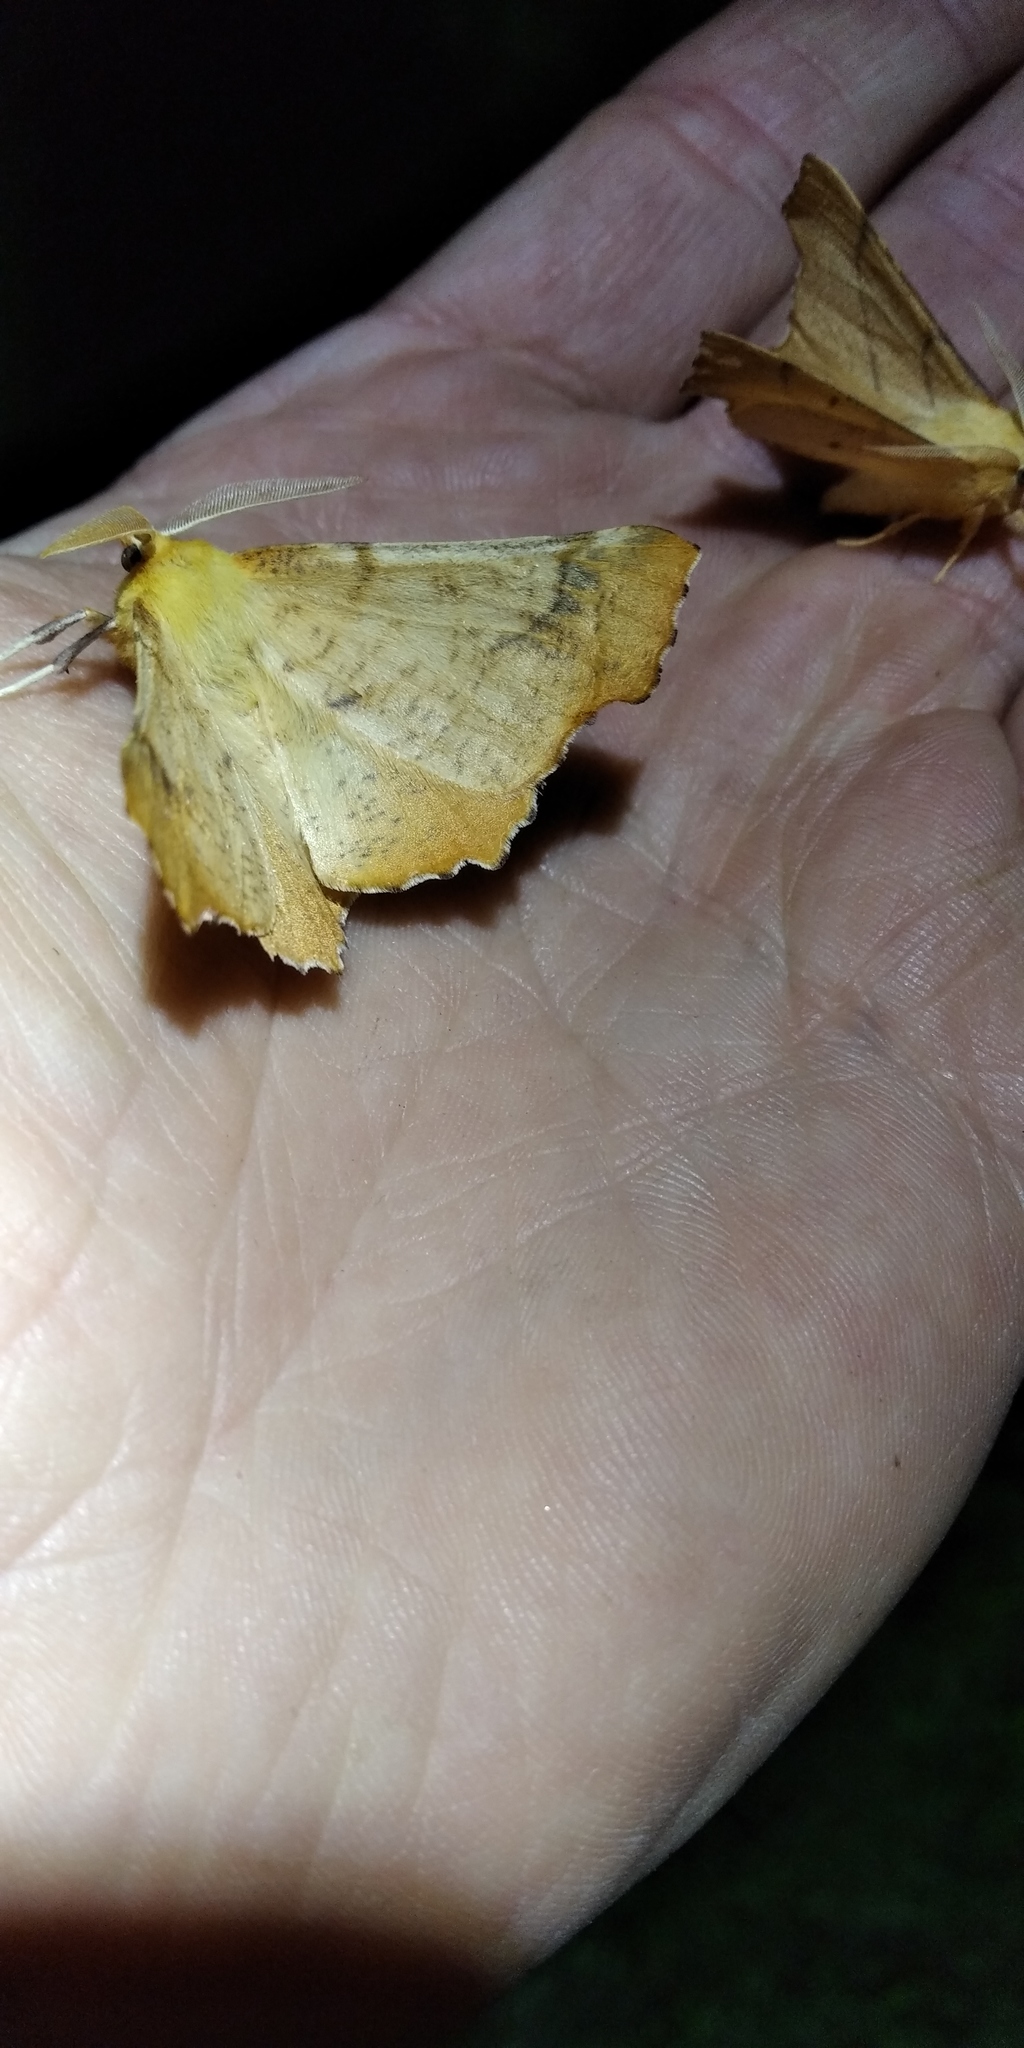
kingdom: Animalia
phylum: Arthropoda
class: Insecta
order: Lepidoptera
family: Geometridae
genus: Ennomos
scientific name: Ennomos autumnaria
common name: Large thorn
